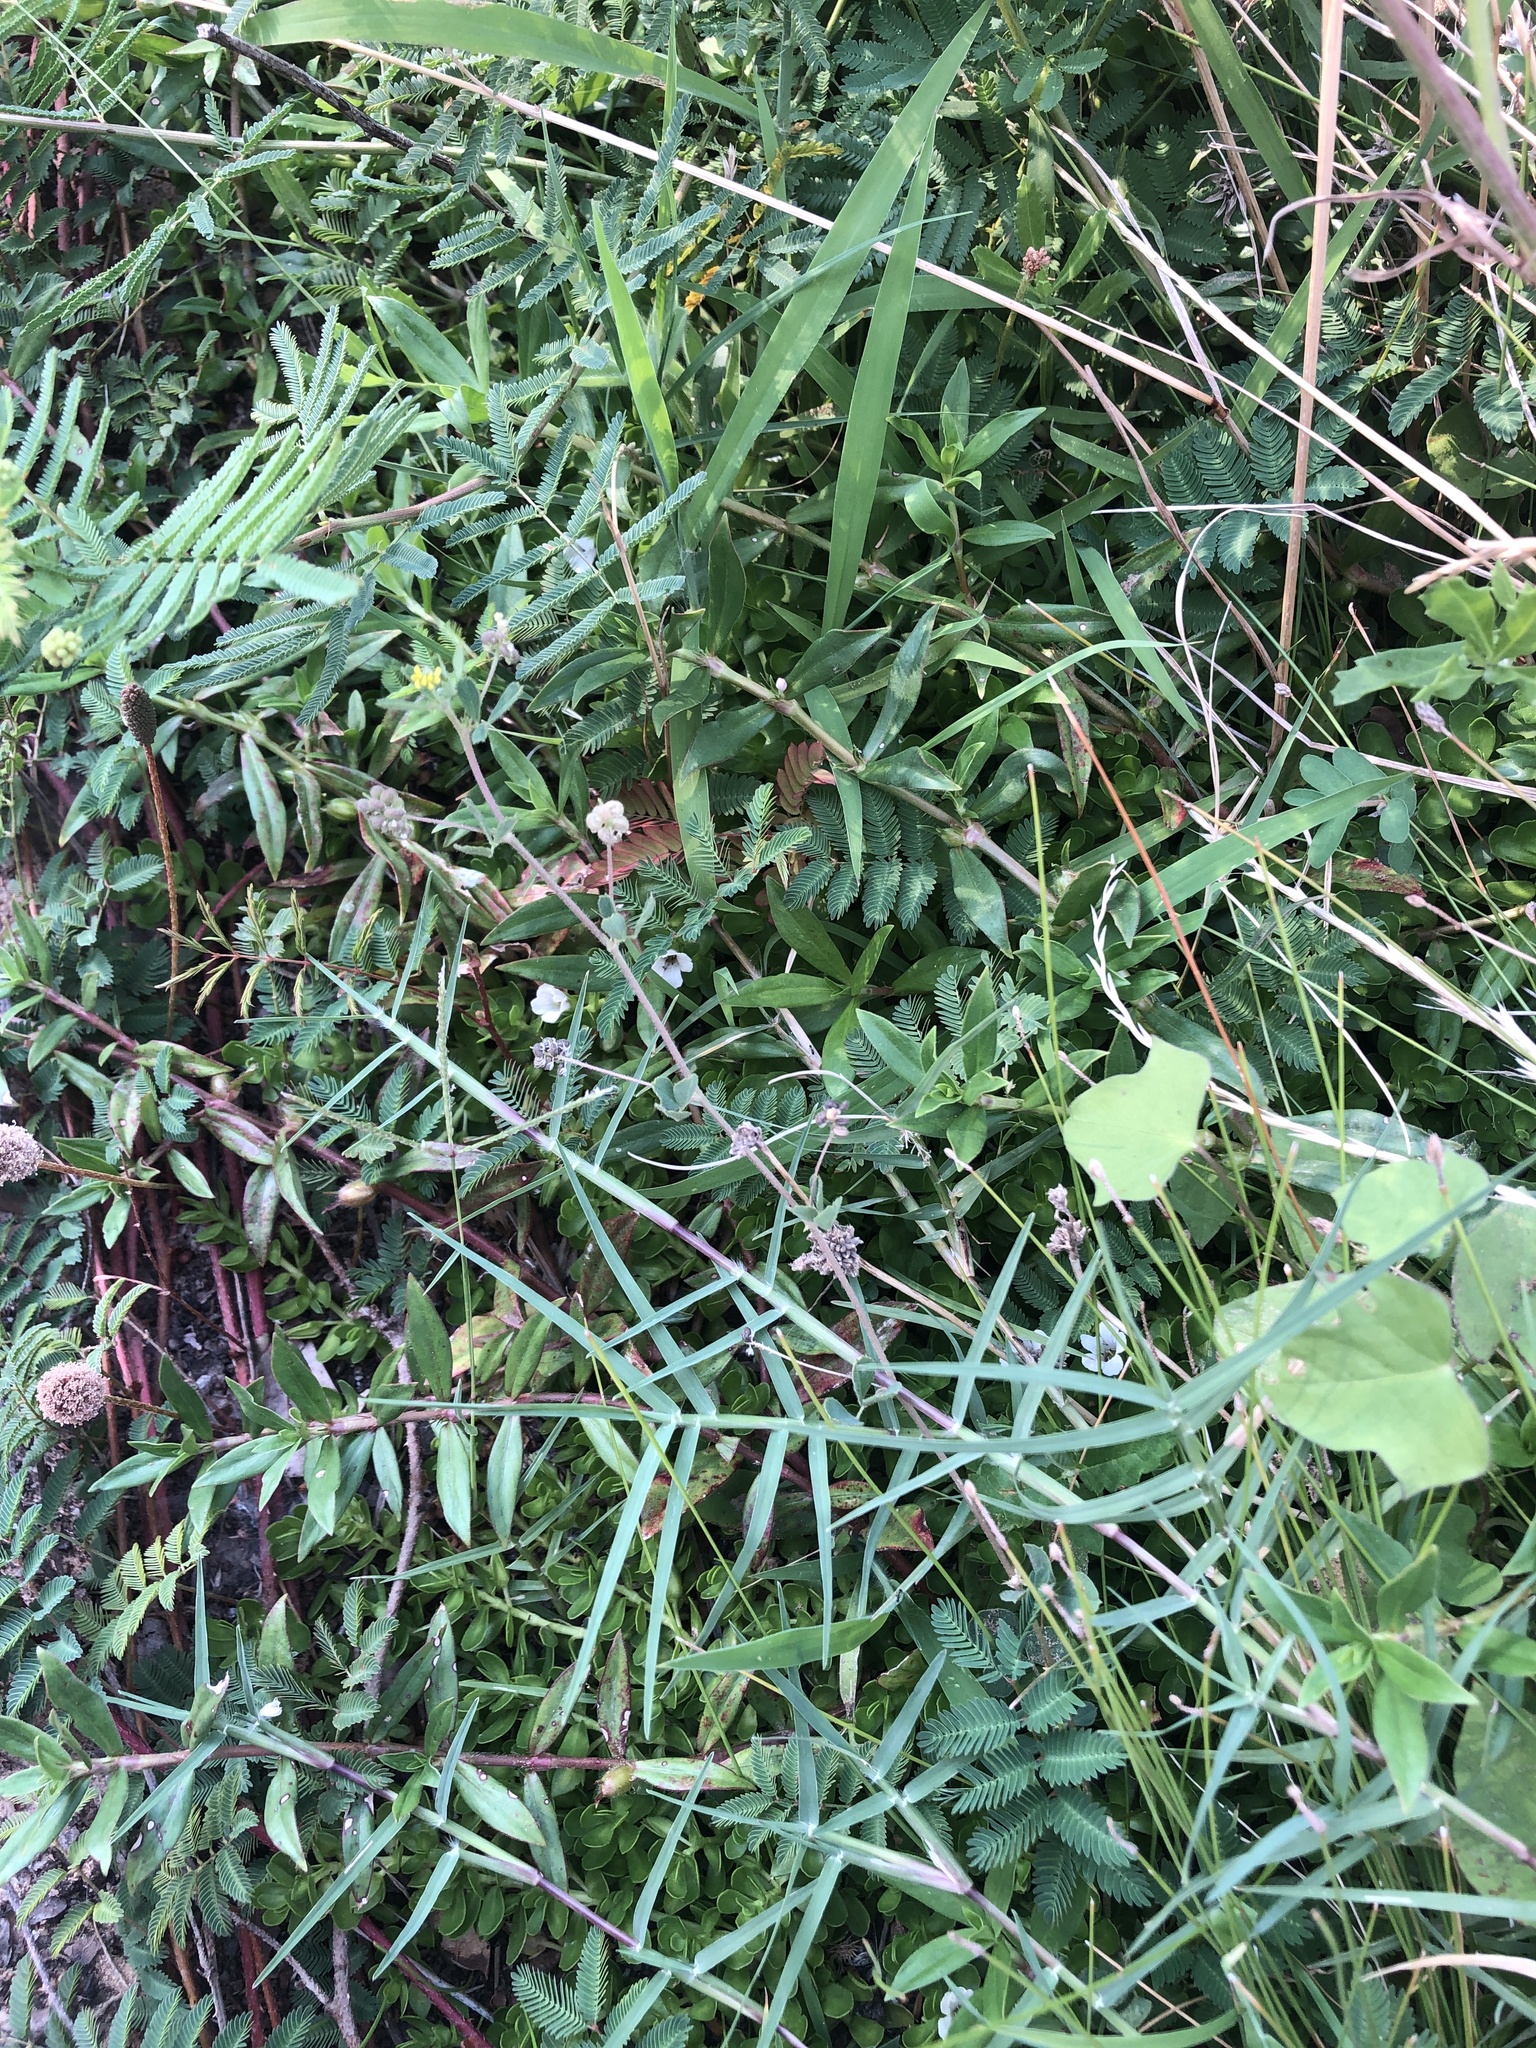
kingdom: Plantae
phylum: Tracheophyta
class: Magnoliopsida
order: Fabales
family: Fabaceae
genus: Medicago
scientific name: Medicago lupulina
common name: Black medick
